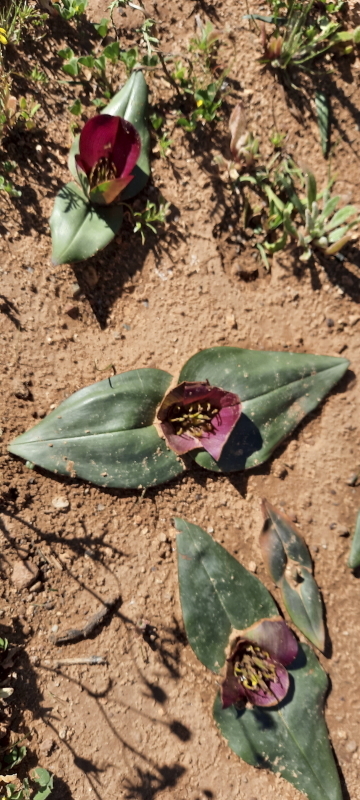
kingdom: Plantae
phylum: Tracheophyta
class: Liliopsida
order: Liliales
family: Colchicaceae
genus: Colchicum
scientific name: Colchicum burchellii
